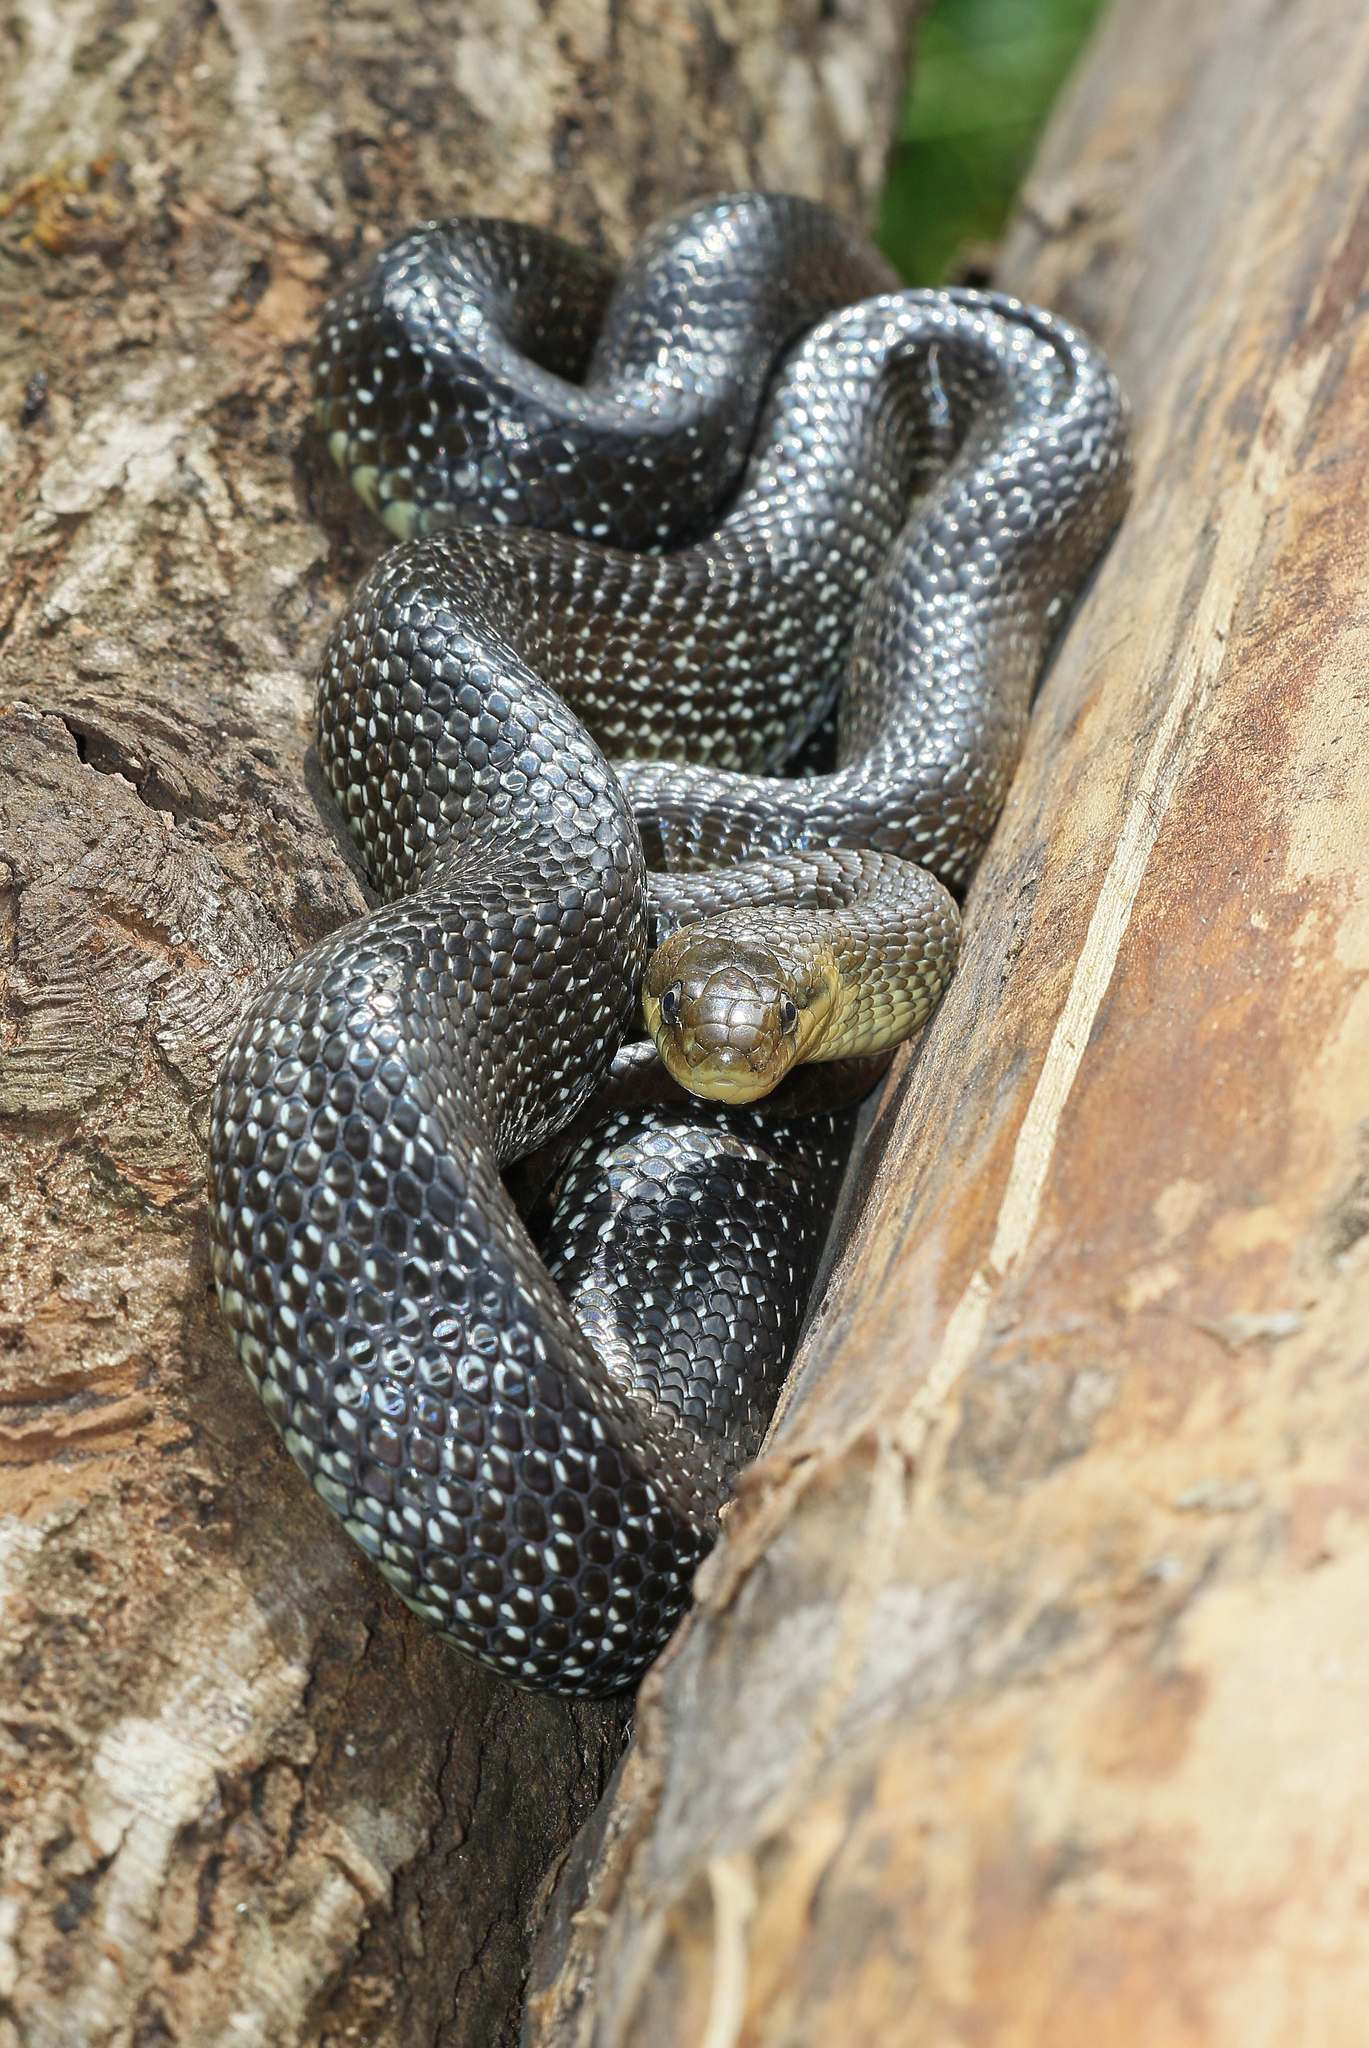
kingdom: Animalia
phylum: Chordata
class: Squamata
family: Colubridae
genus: Zamenis
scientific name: Zamenis longissimus
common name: Aesculapean snake
